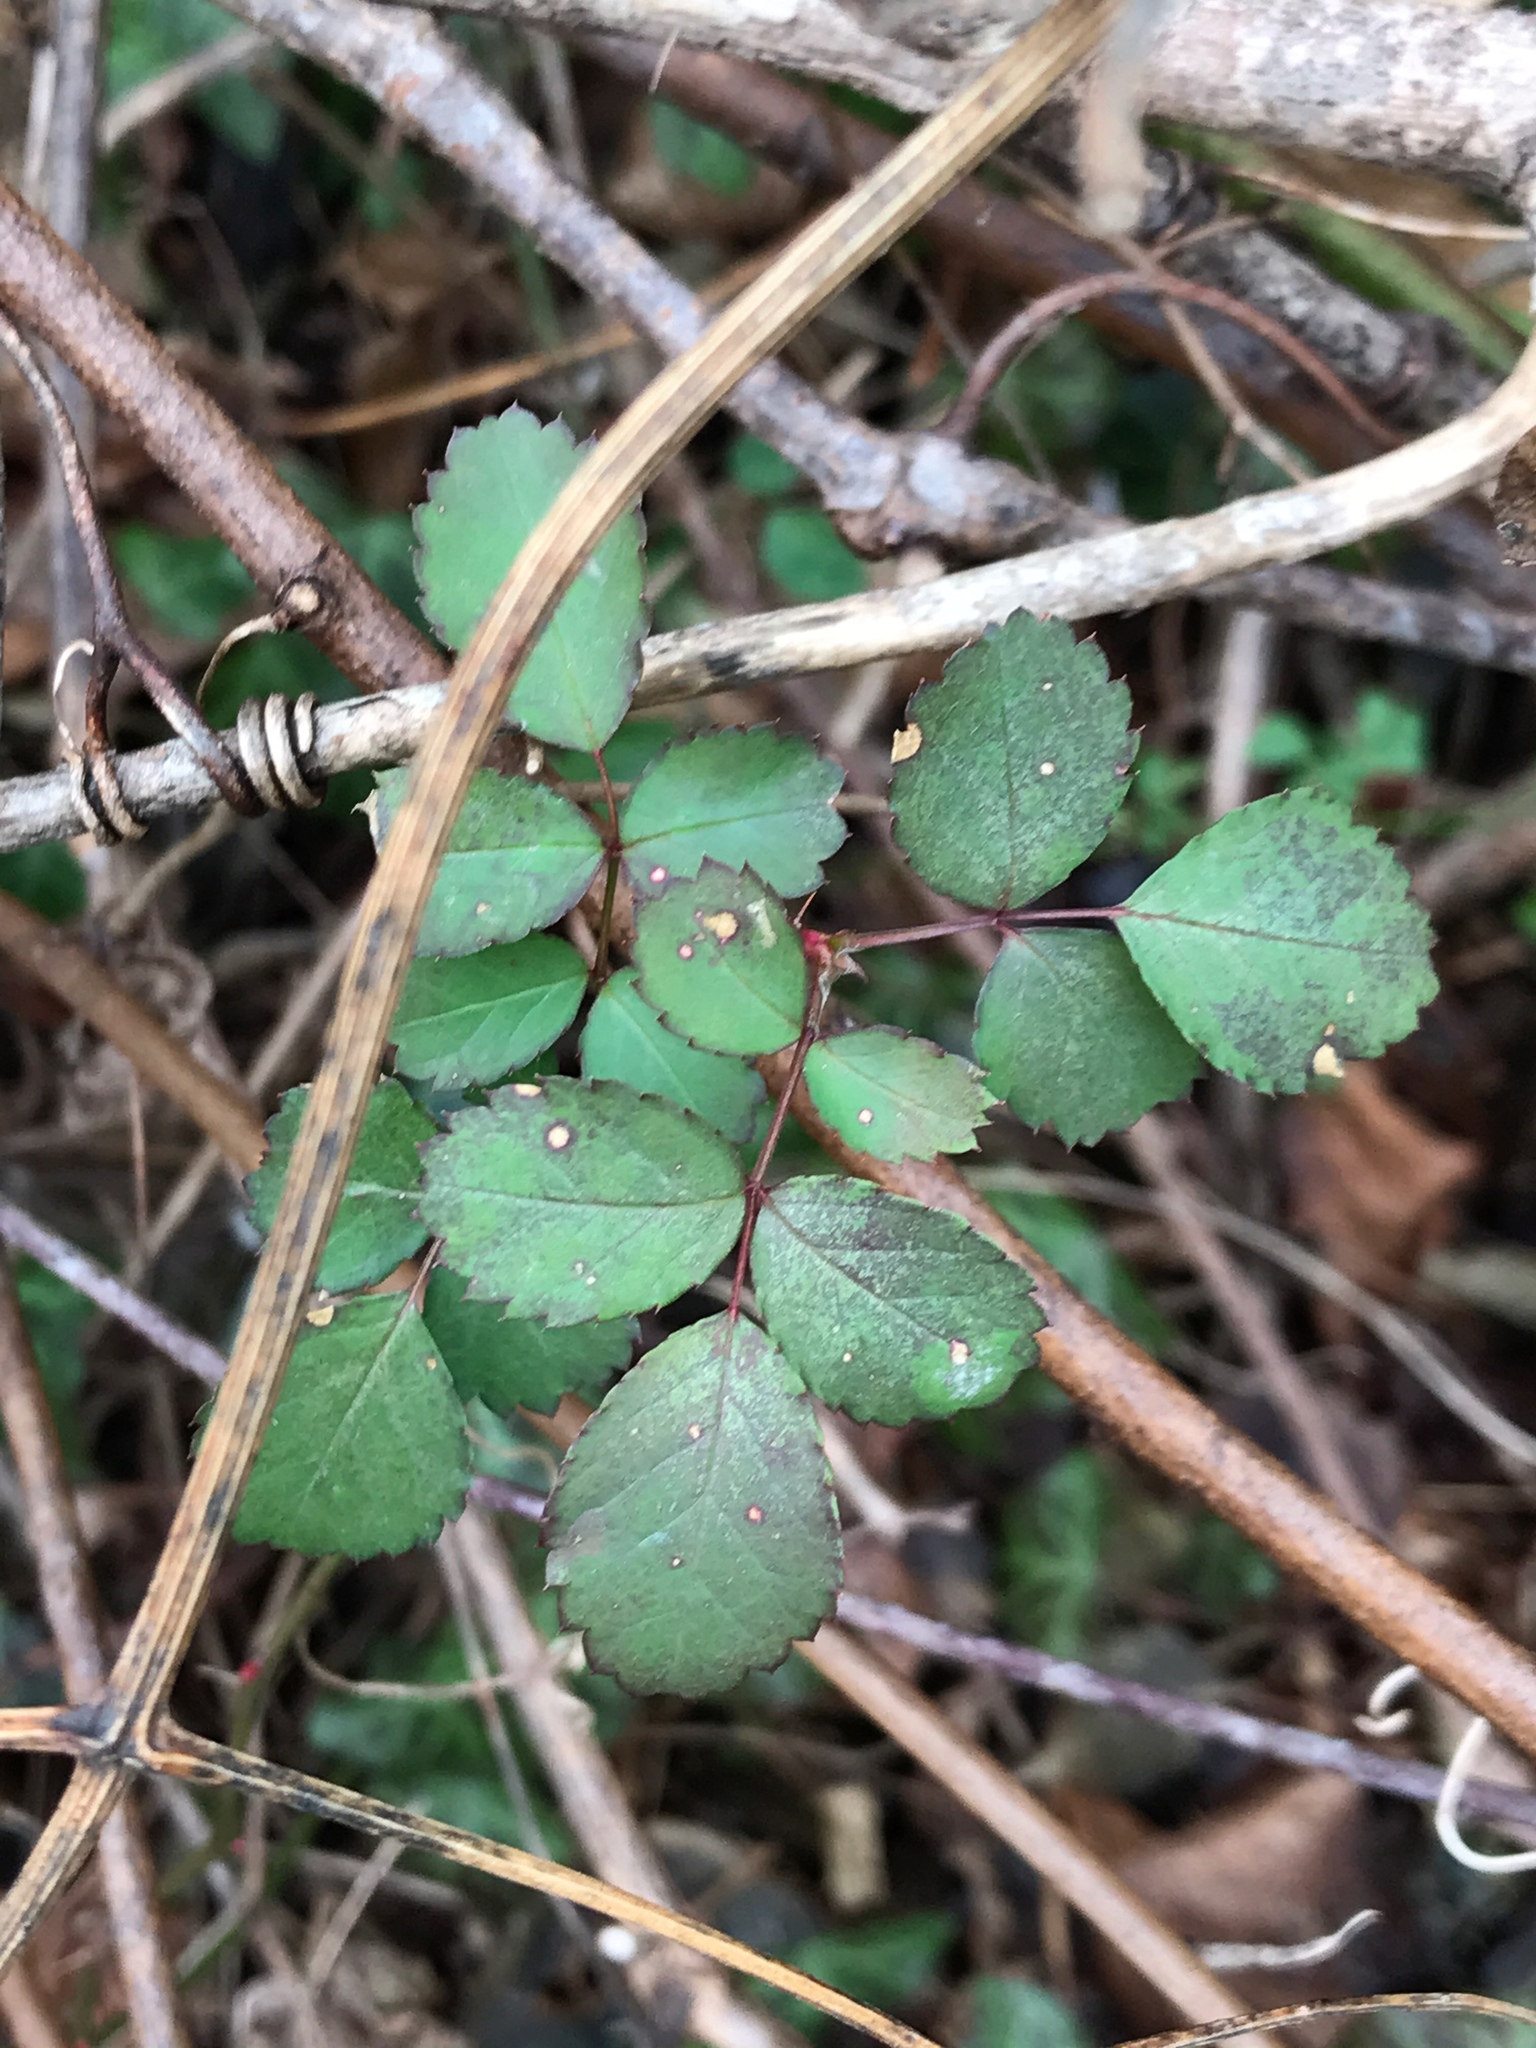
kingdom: Plantae
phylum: Tracheophyta
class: Magnoliopsida
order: Rosales
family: Rosaceae
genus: Rosa
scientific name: Rosa multiflora
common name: Multiflora rose
